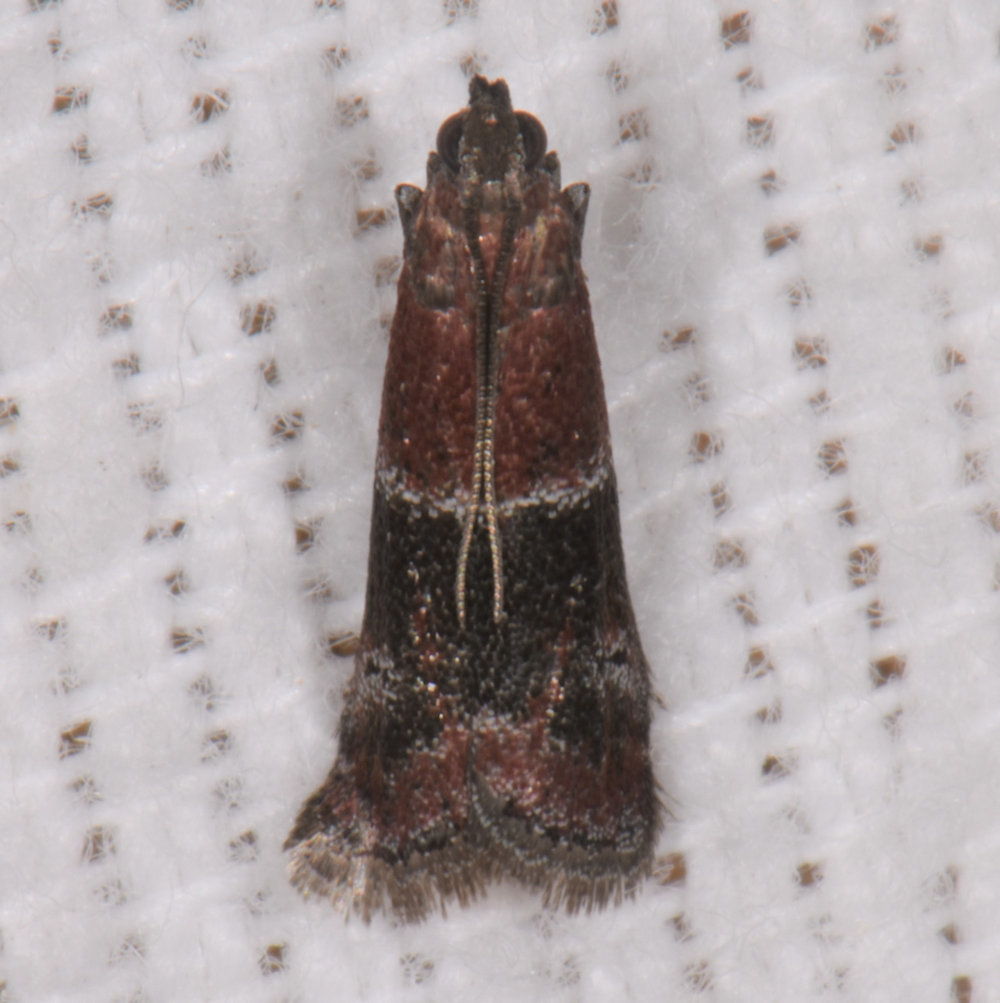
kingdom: Animalia
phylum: Arthropoda
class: Insecta
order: Lepidoptera
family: Pyralidae
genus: Moodna
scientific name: Moodna ostrinella
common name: Darker moodna moth
